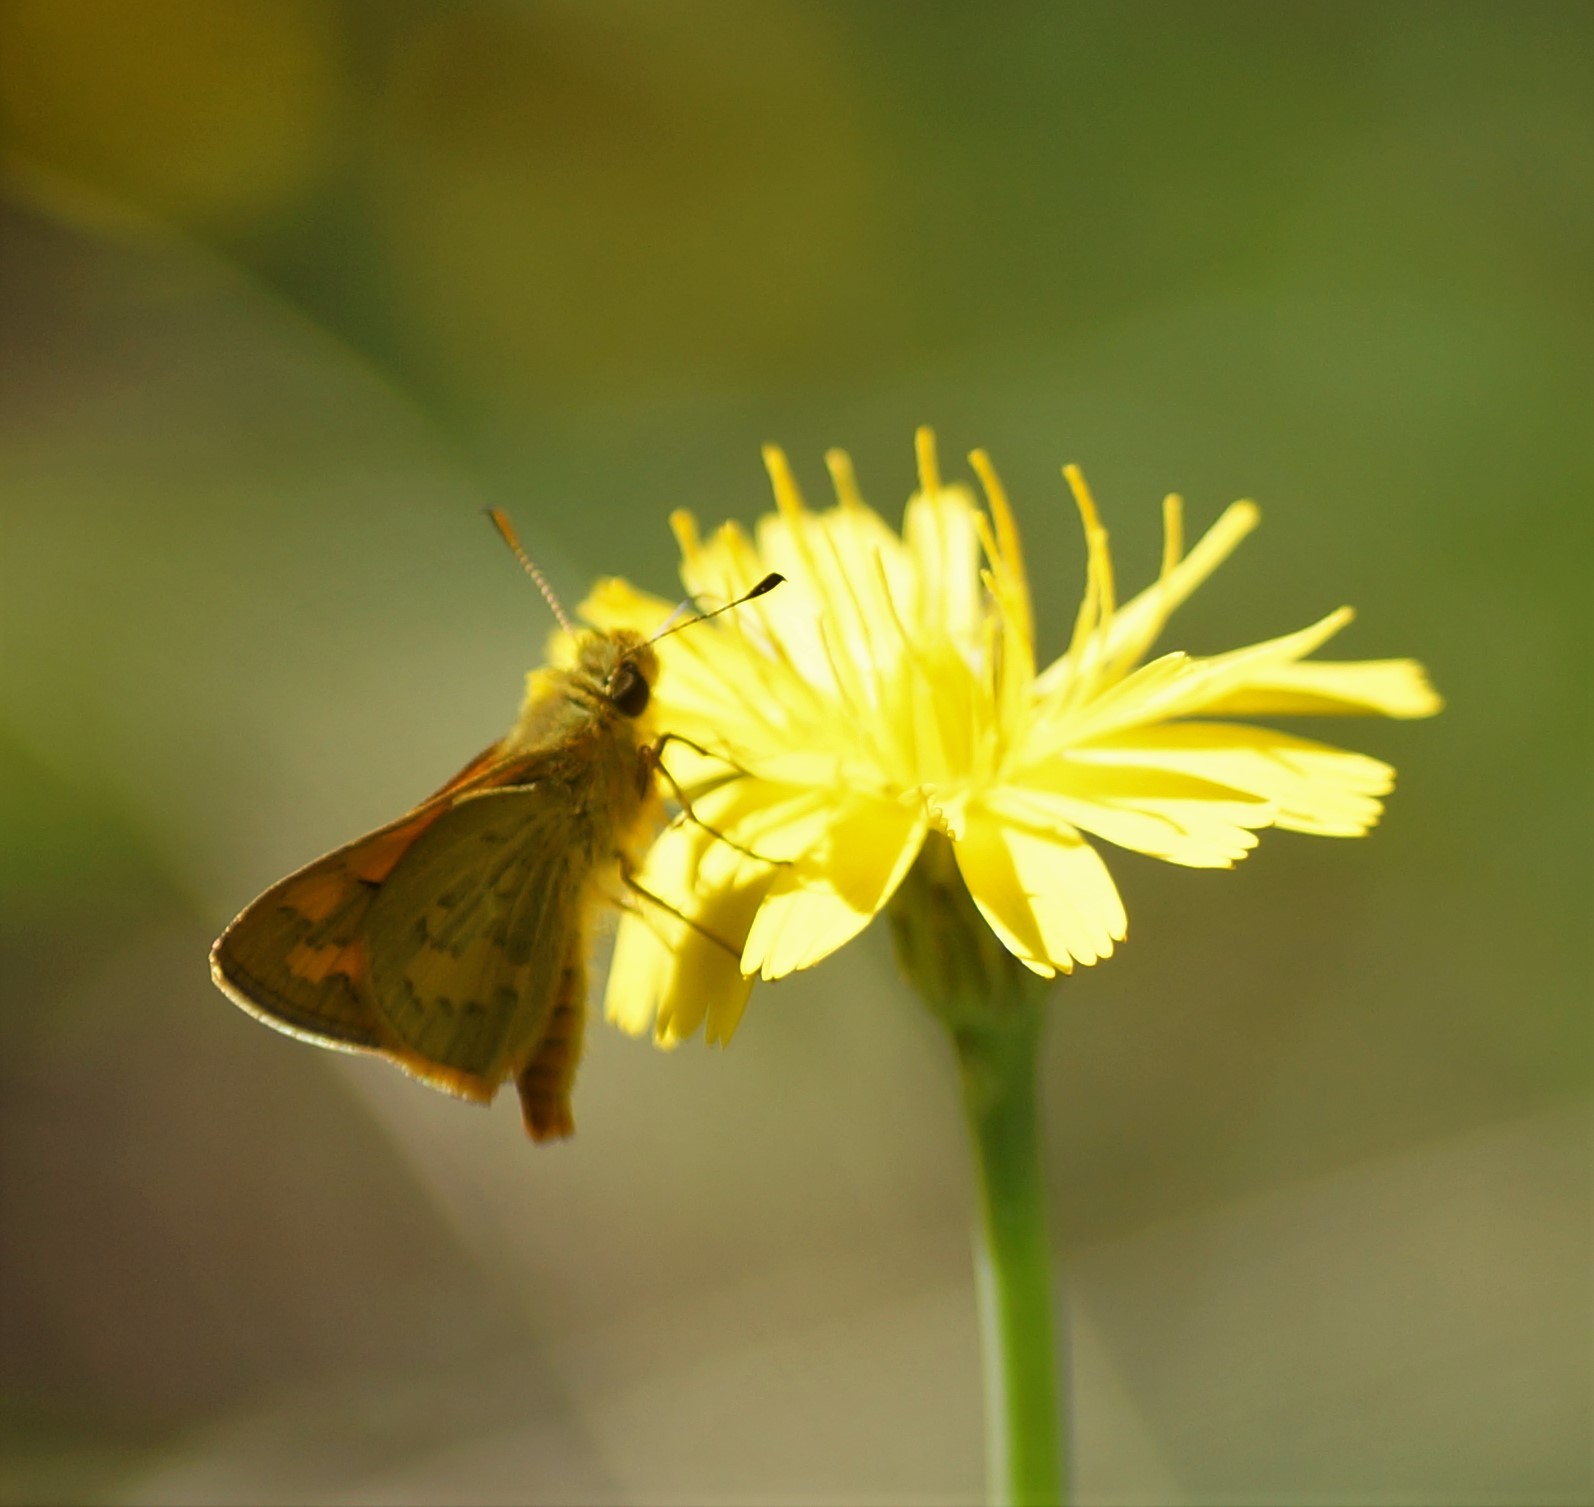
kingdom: Animalia
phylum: Arthropoda
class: Insecta
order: Lepidoptera
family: Hesperiidae
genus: Ocybadistes
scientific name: Ocybadistes walkeri
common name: Yellow-banded dart
